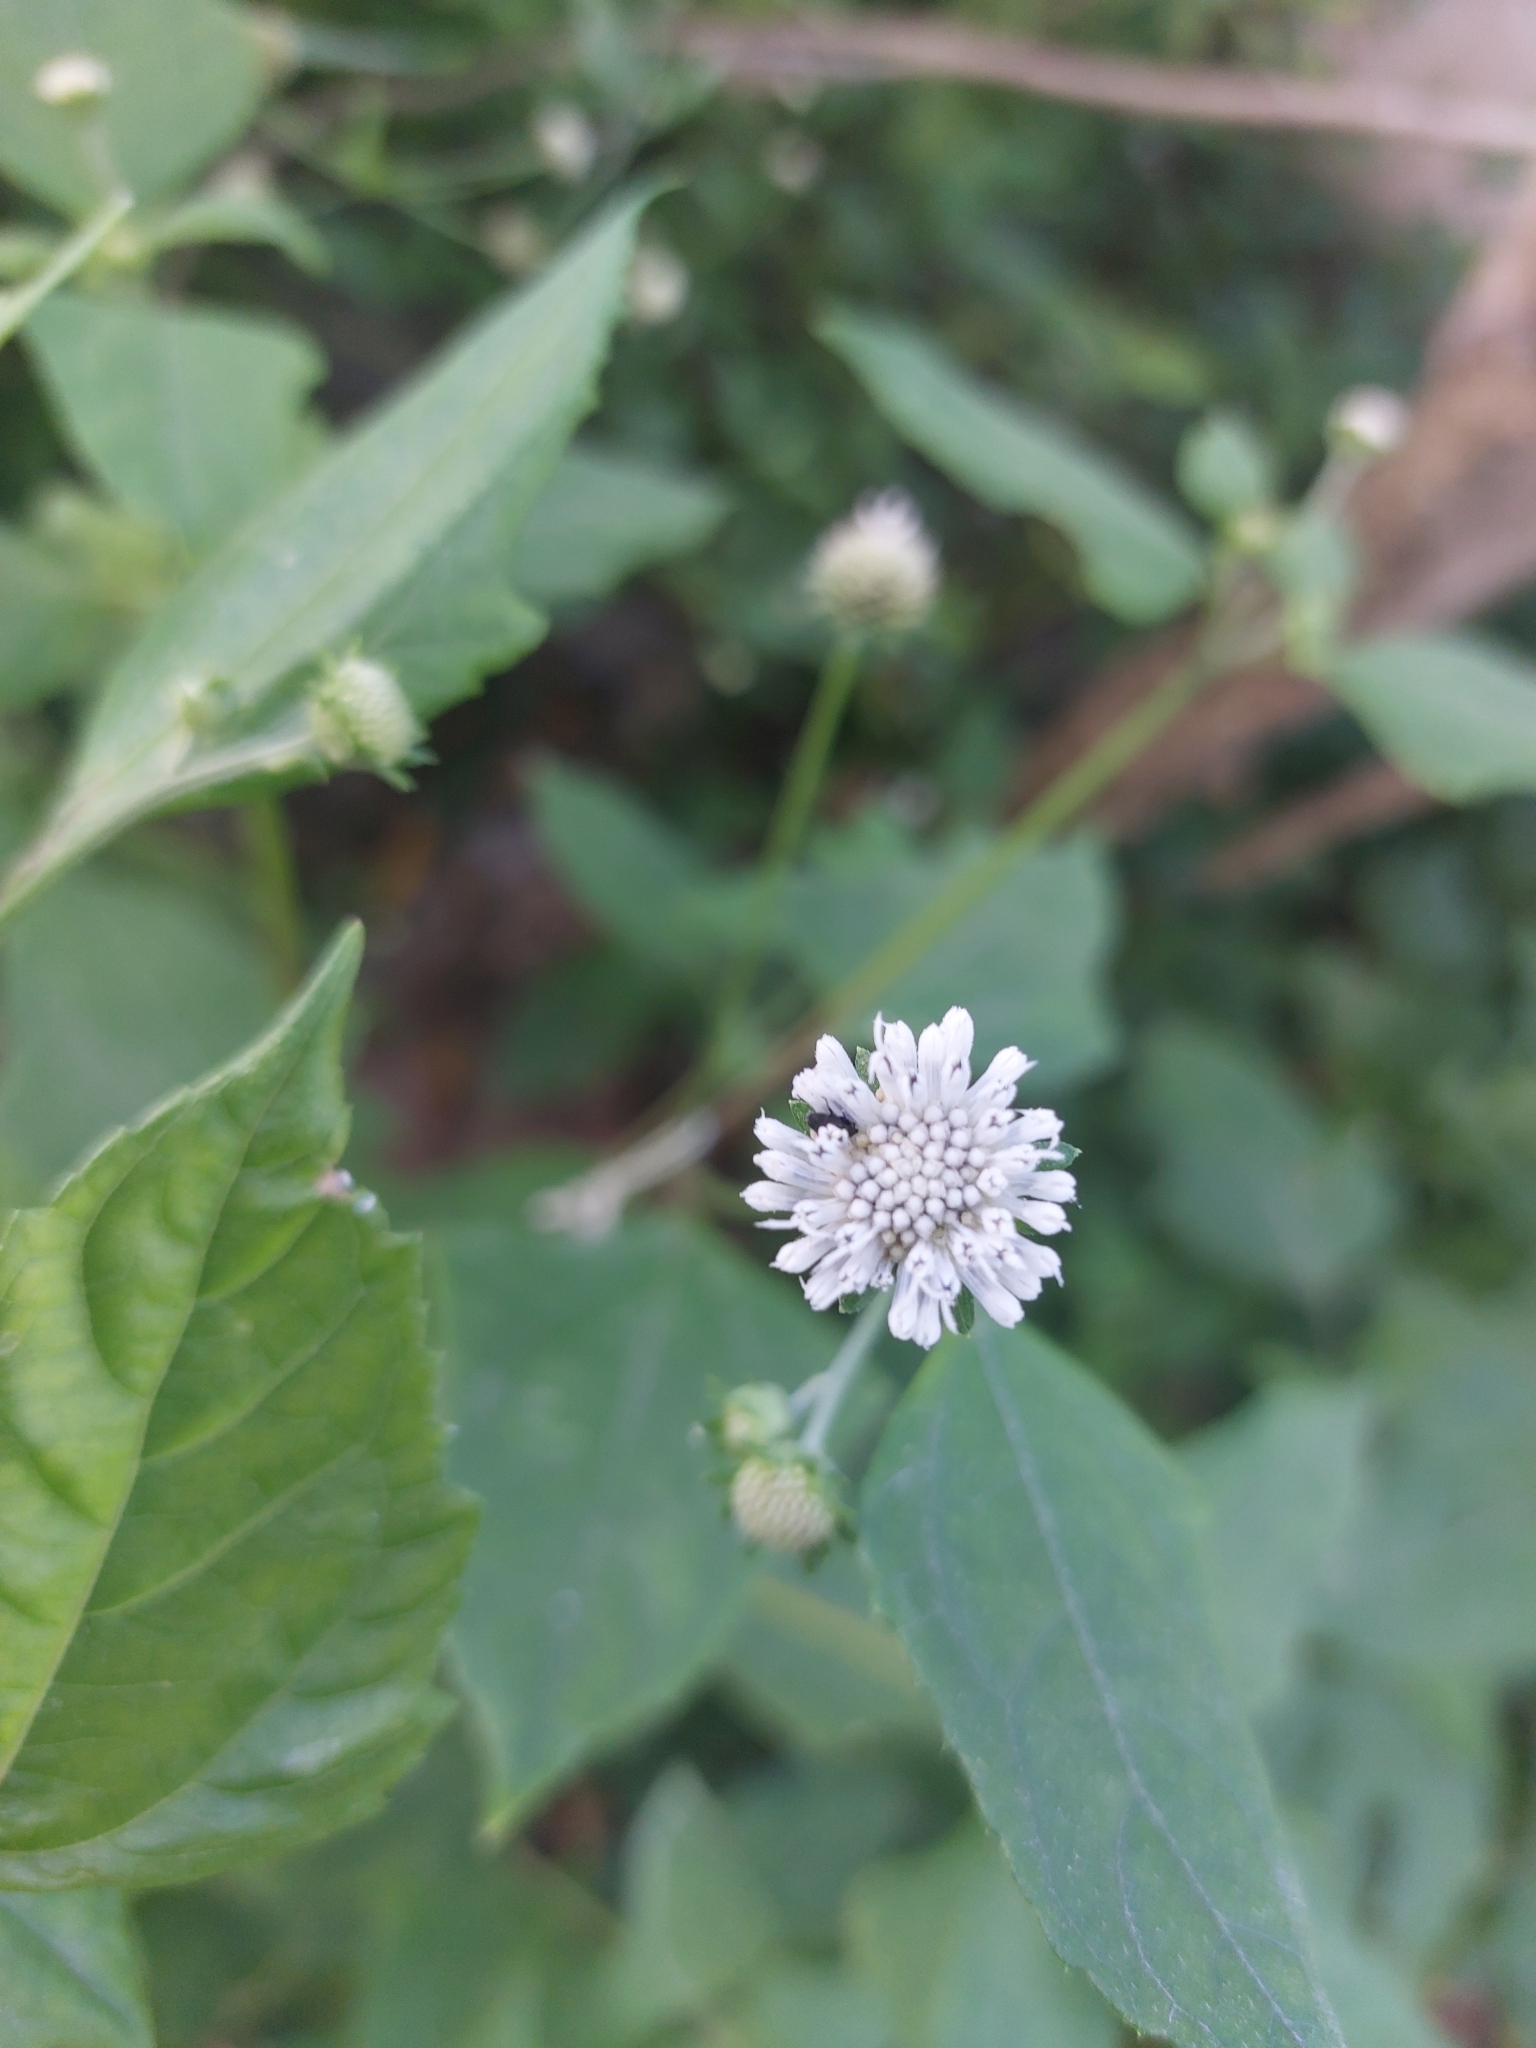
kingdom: Plantae
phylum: Tracheophyta
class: Magnoliopsida
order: Asterales
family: Asteraceae
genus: Melanthera
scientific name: Melanthera nivea
